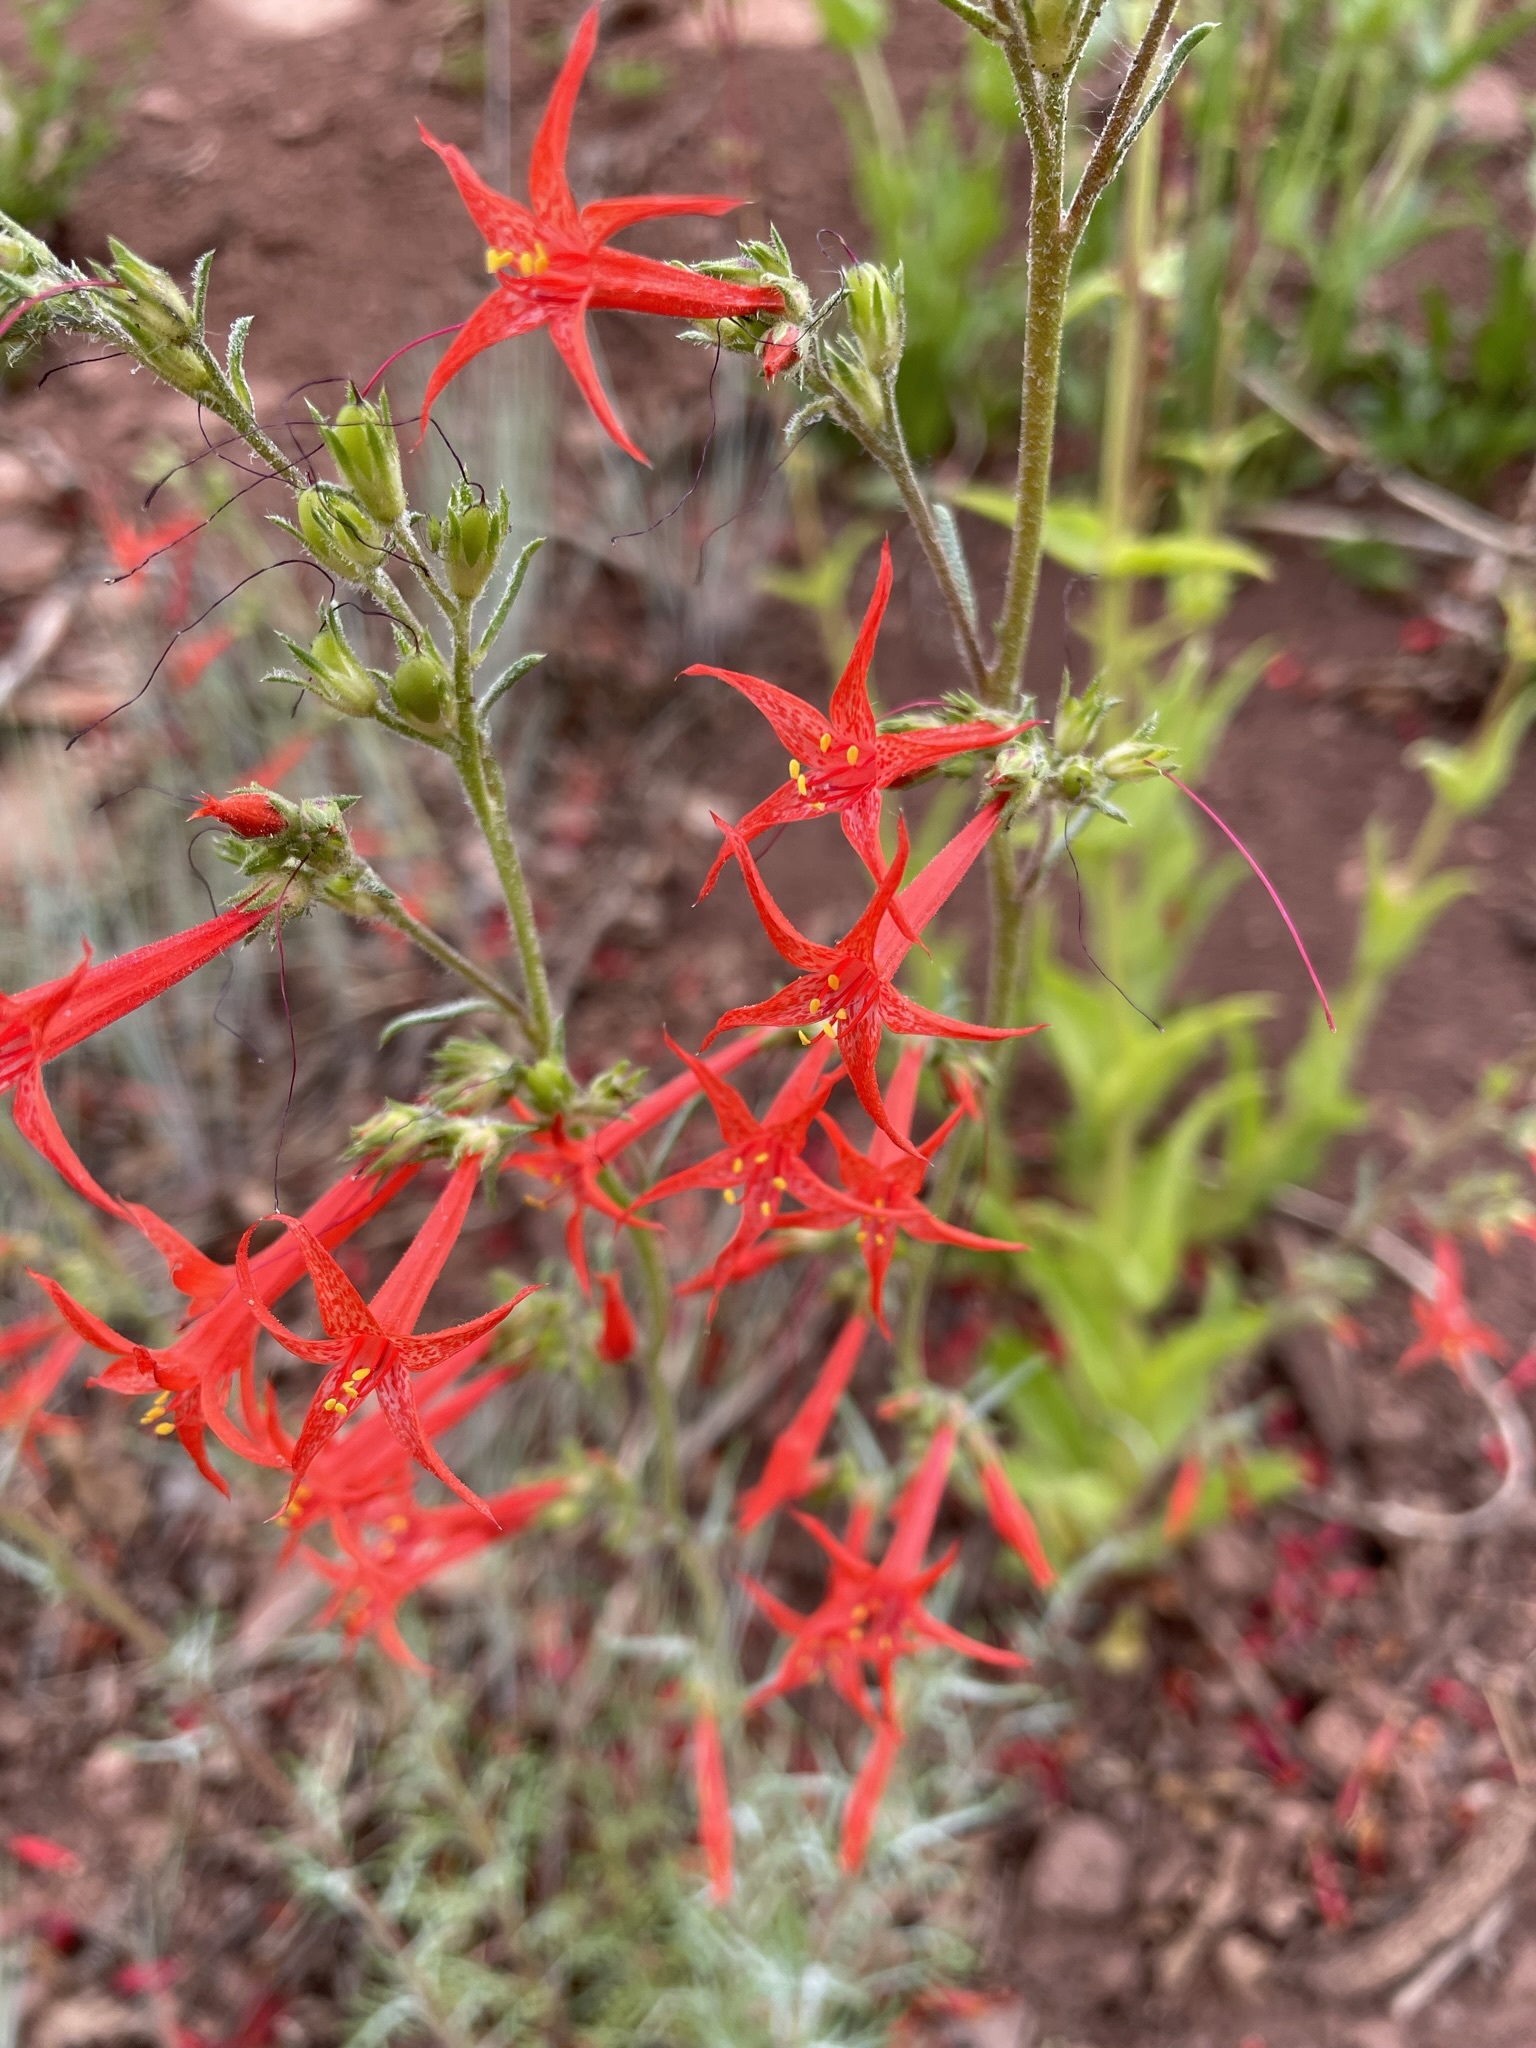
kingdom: Plantae
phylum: Tracheophyta
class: Magnoliopsida
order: Ericales
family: Polemoniaceae
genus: Ipomopsis
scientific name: Ipomopsis aggregata
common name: Scarlet gilia
